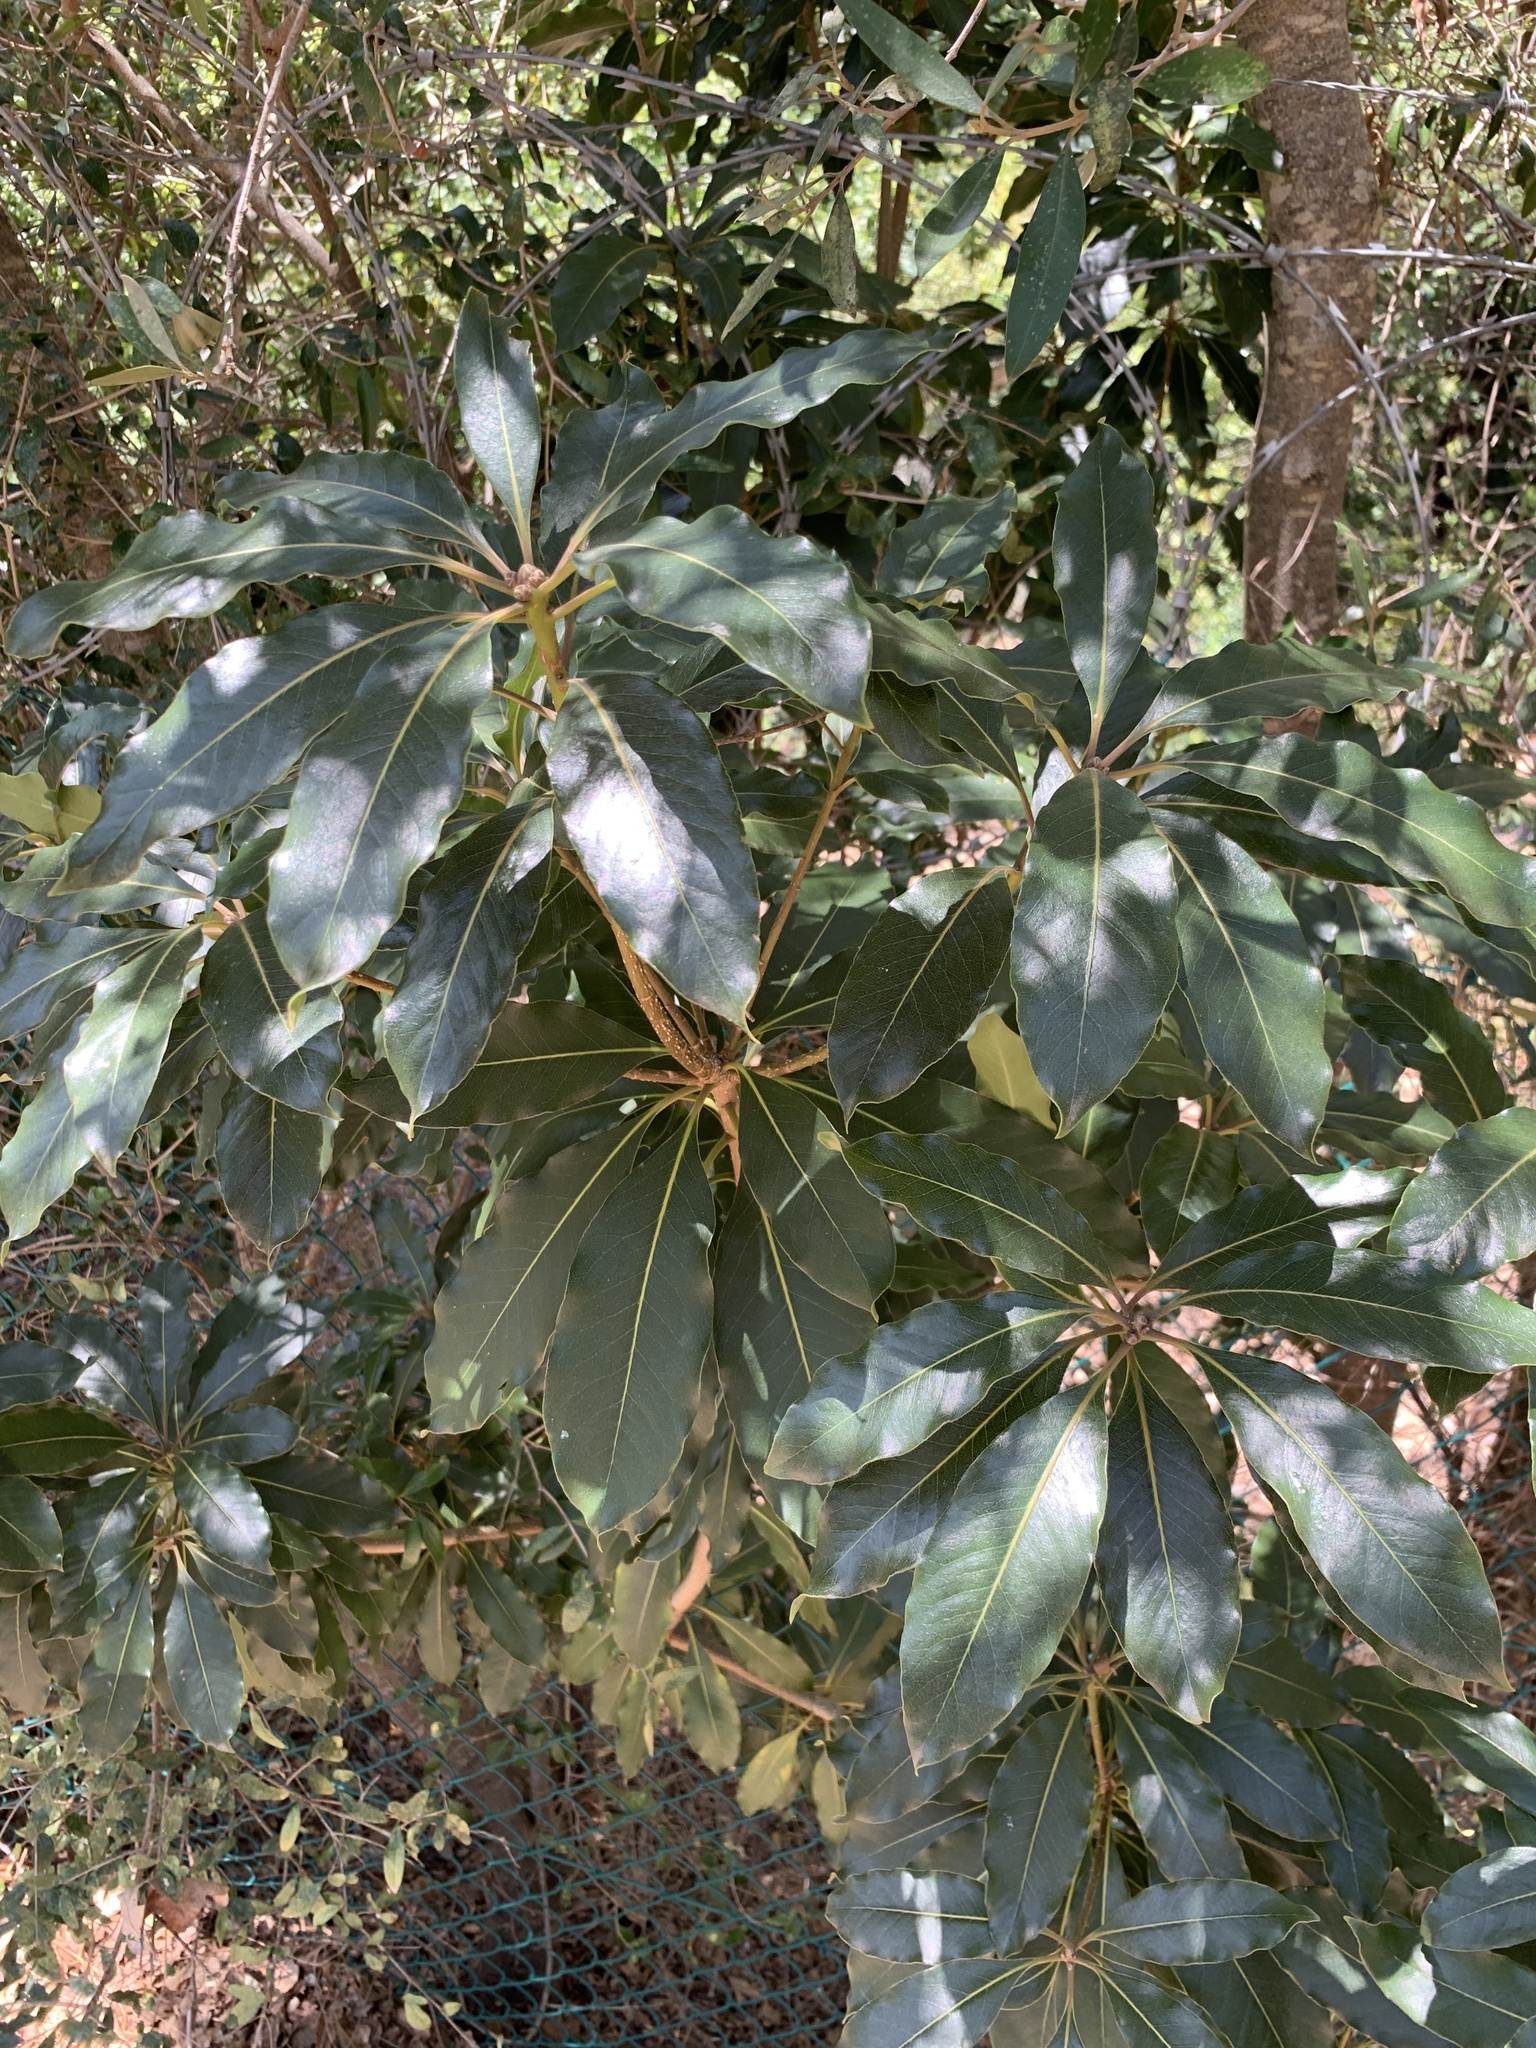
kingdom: Plantae
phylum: Tracheophyta
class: Magnoliopsida
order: Apiales
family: Pittosporaceae
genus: Pittosporum
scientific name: Pittosporum undulatum
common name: Australian cheesewood
